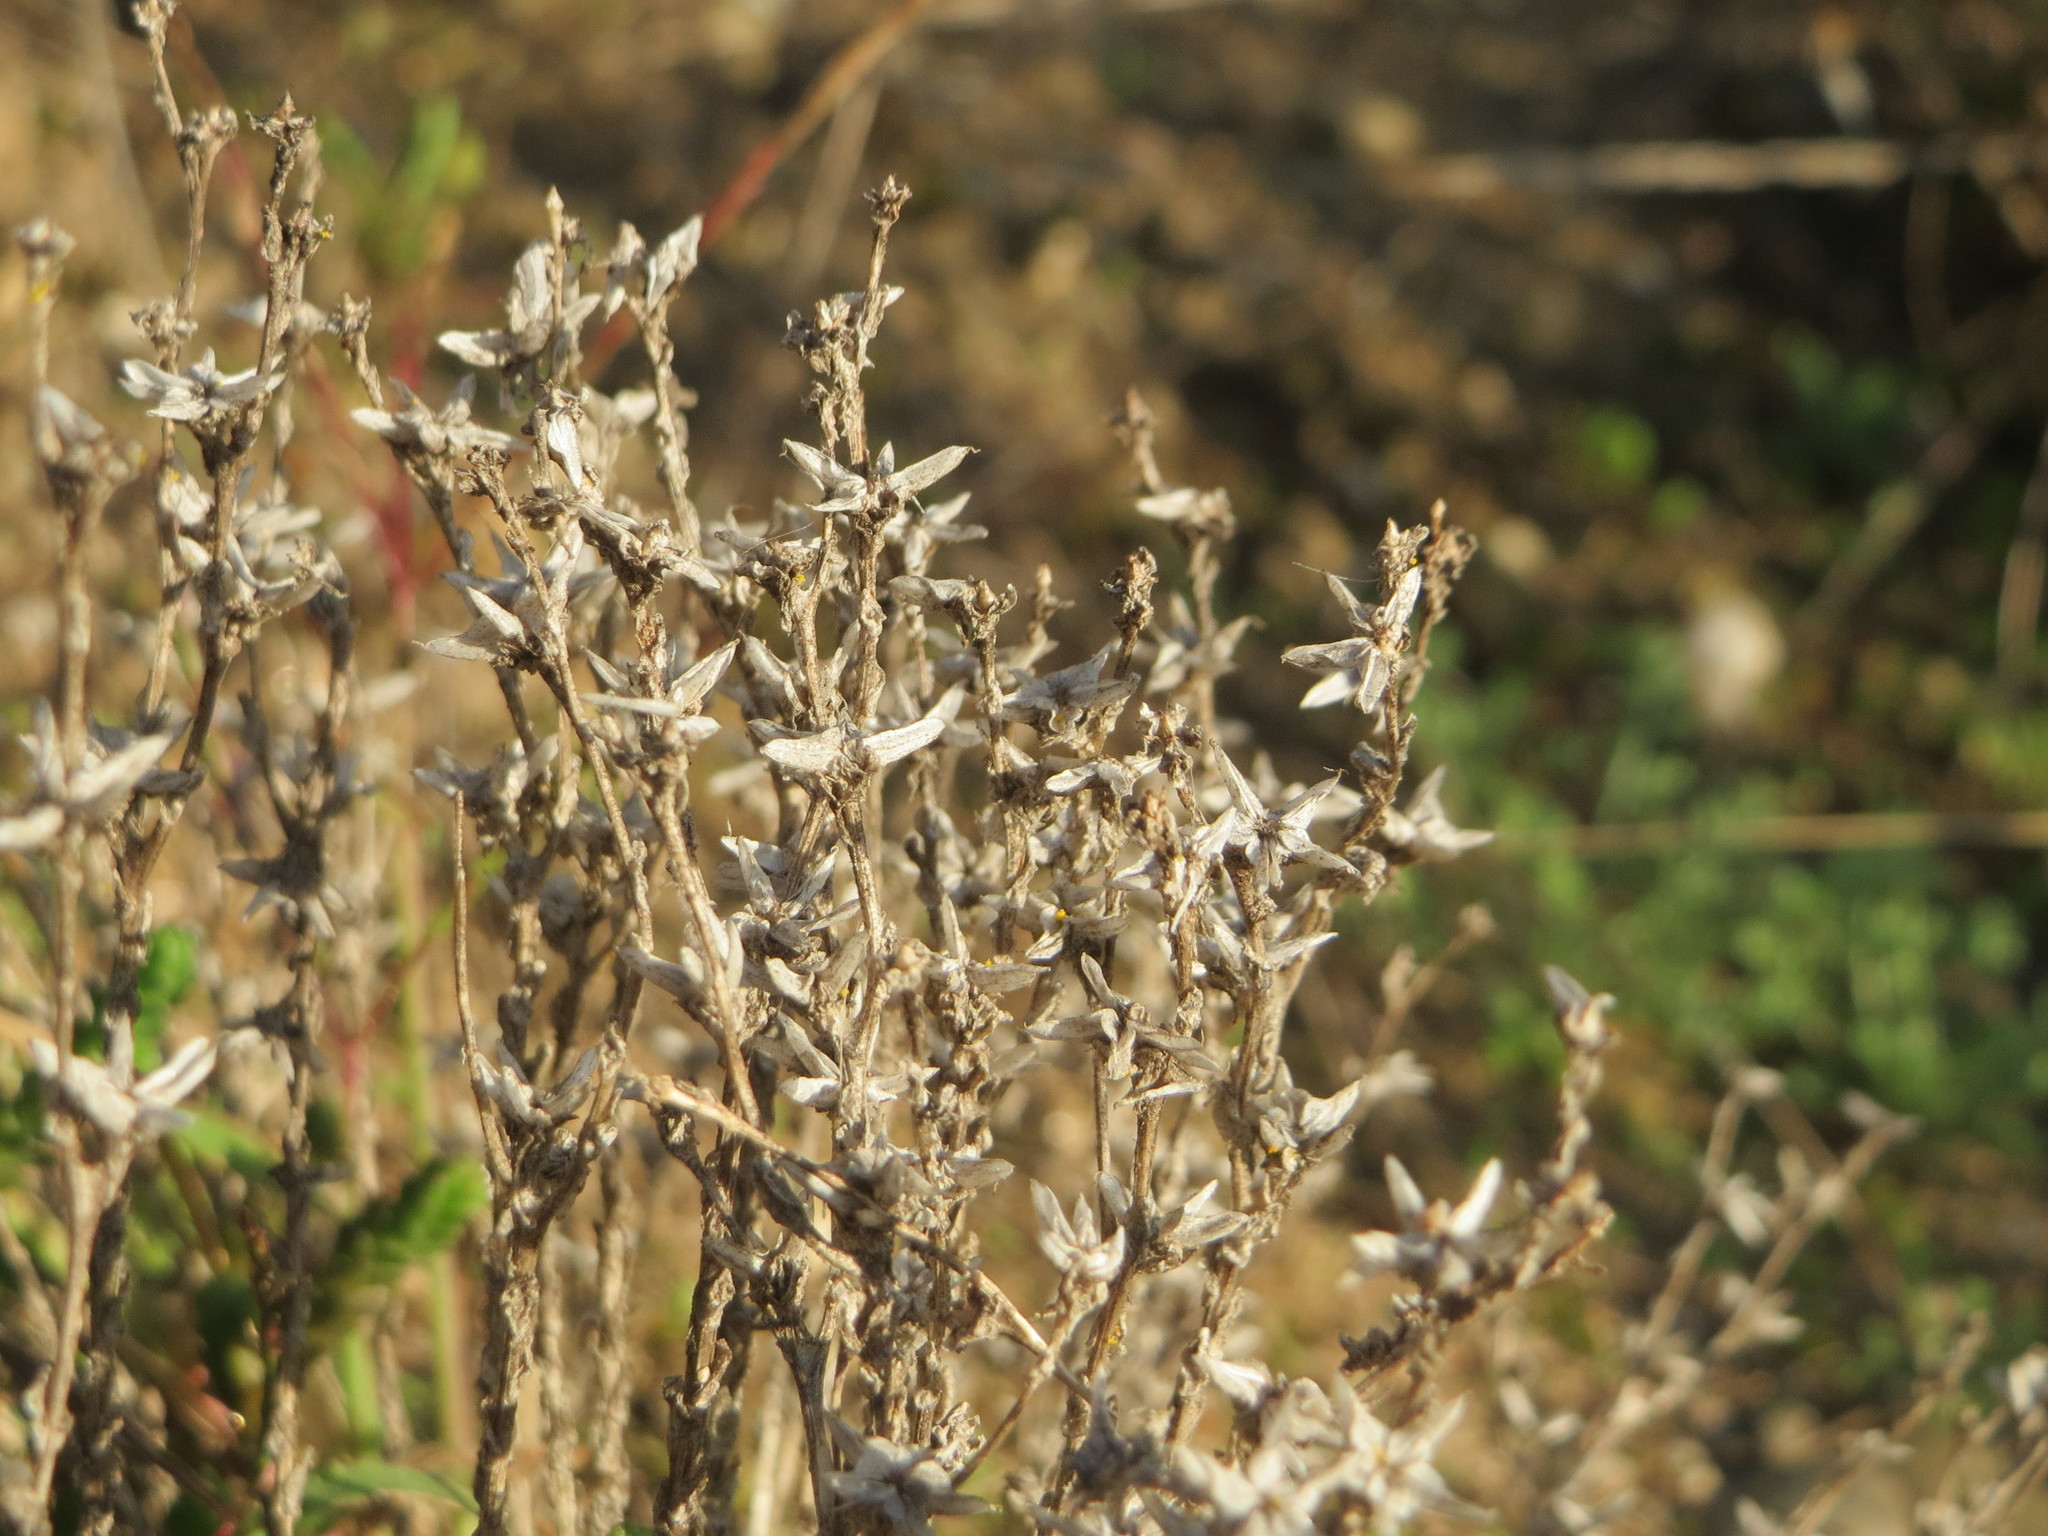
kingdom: Plantae
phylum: Tracheophyta
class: Magnoliopsida
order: Saxifragales
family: Crassulaceae
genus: Sedum
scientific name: Sedum acre
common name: Biting stonecrop
